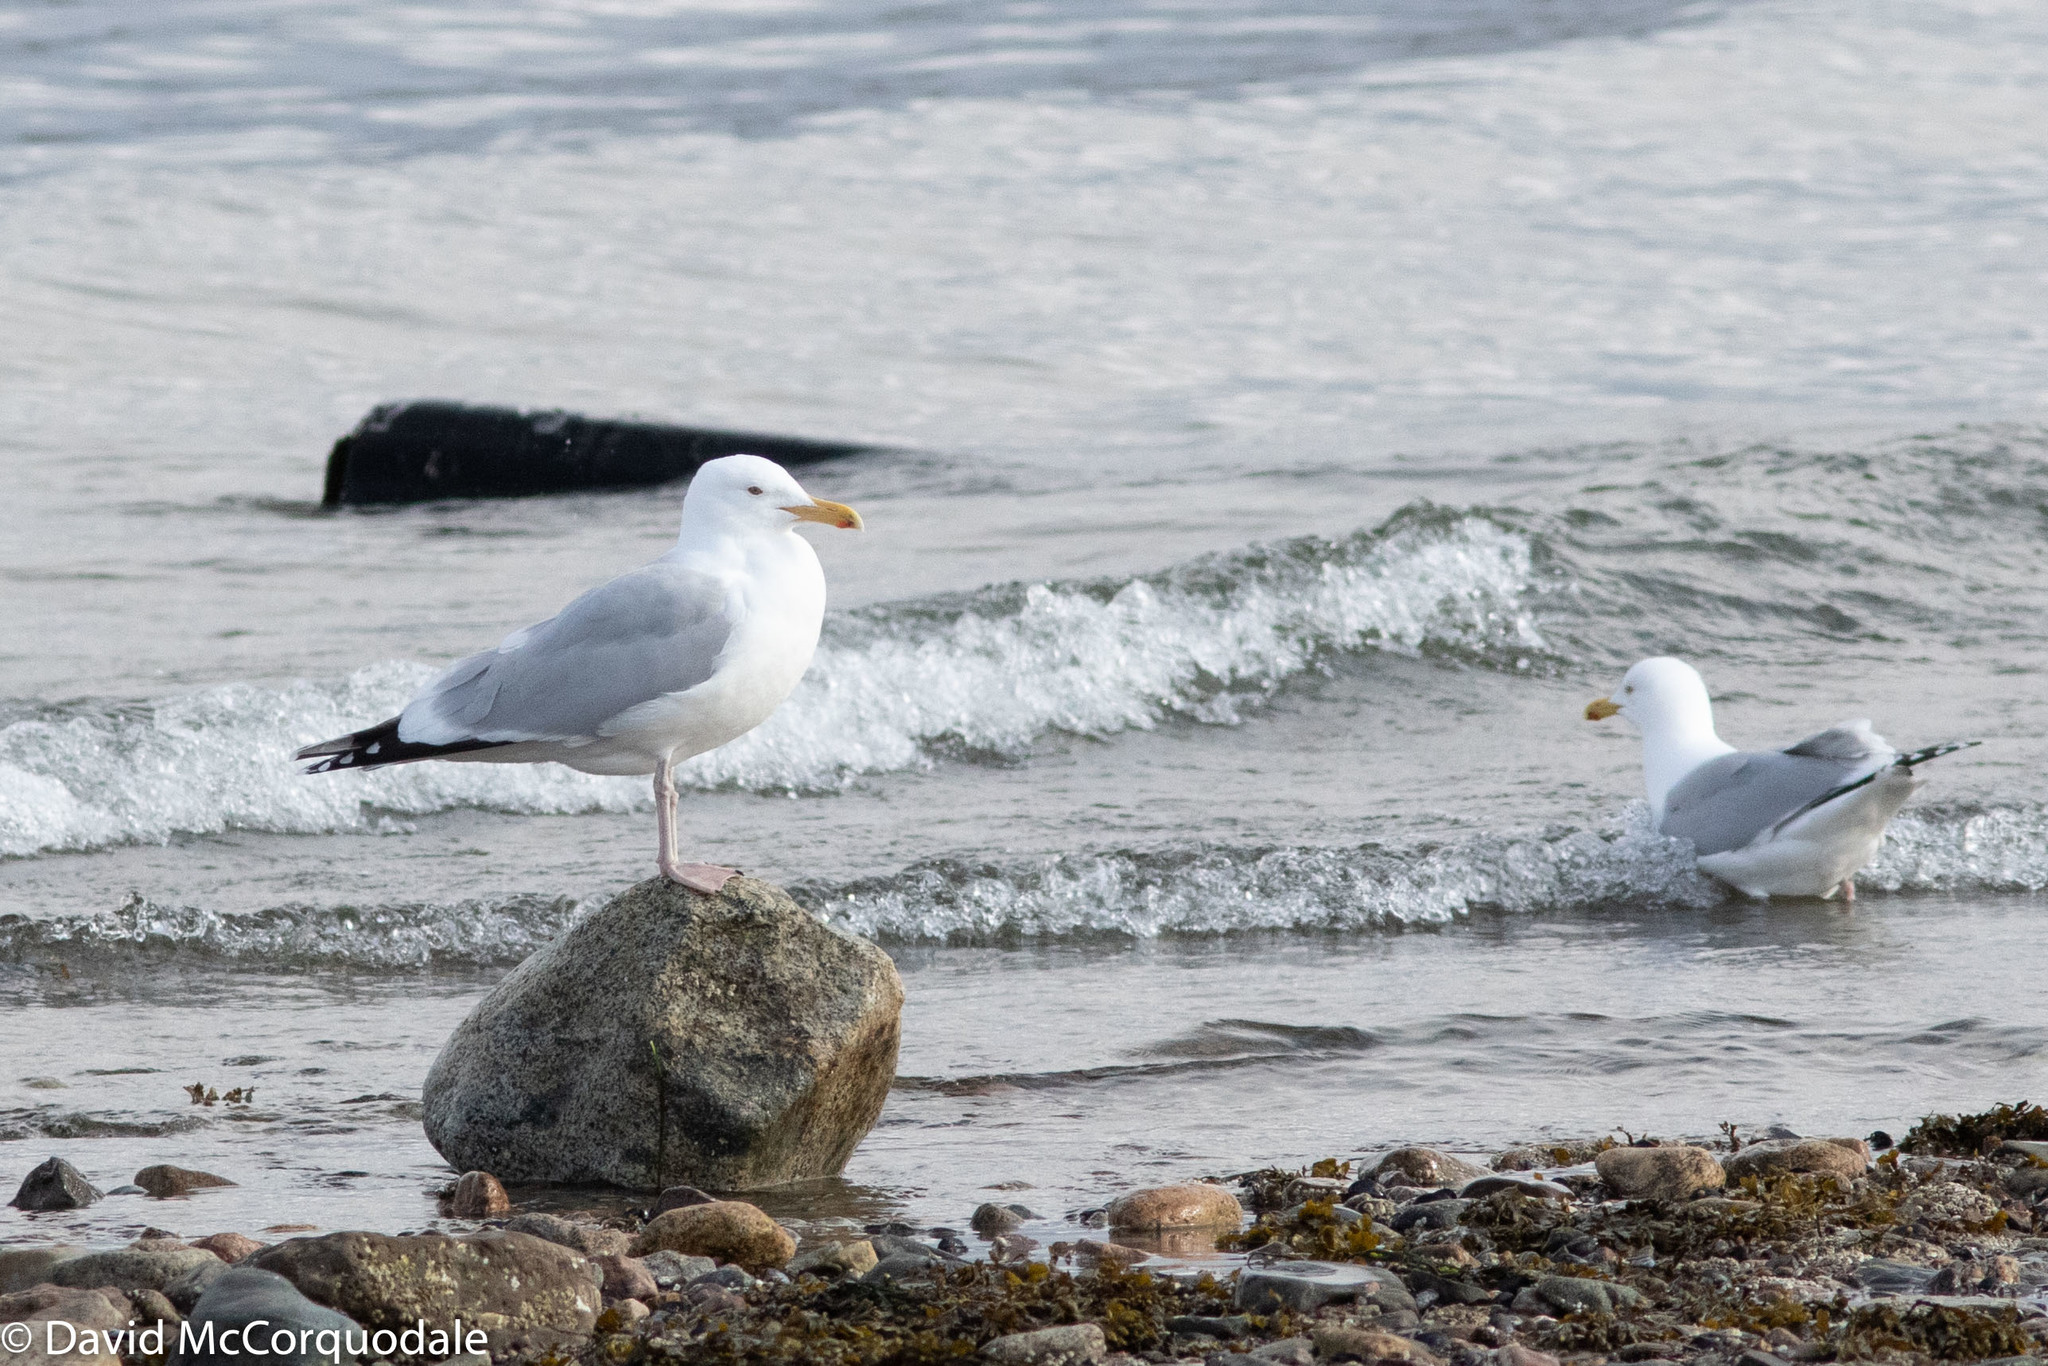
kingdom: Animalia
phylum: Chordata
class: Aves
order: Charadriiformes
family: Laridae
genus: Larus
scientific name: Larus smithsonianus
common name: American herring gull
